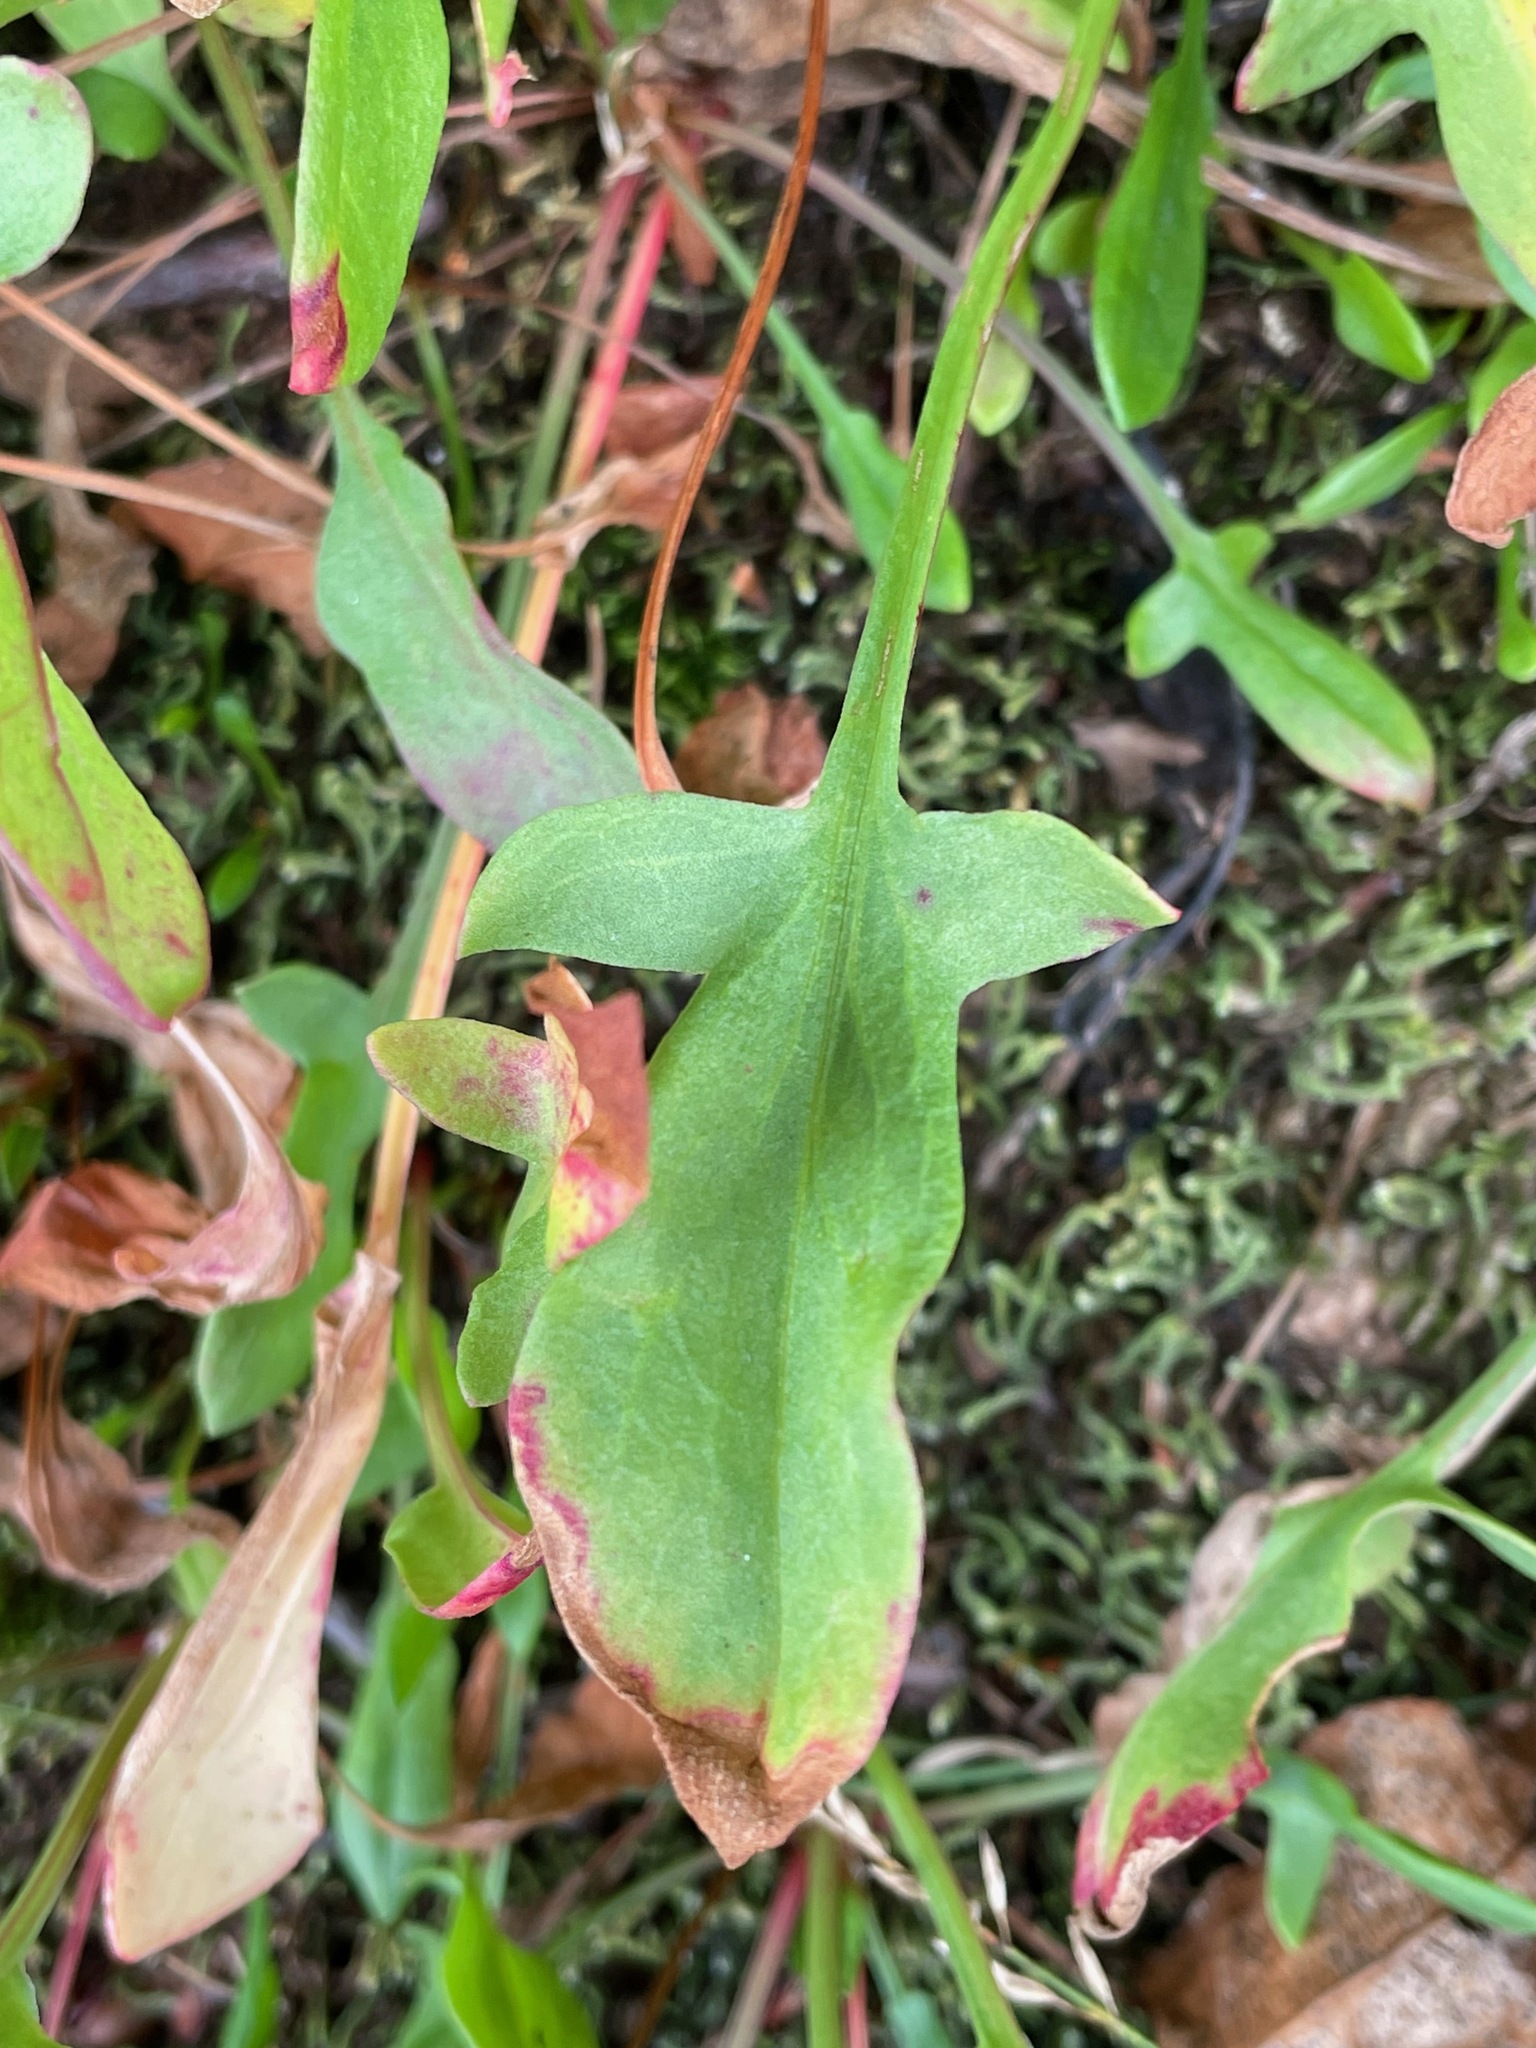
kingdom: Plantae
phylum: Tracheophyta
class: Magnoliopsida
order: Caryophyllales
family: Polygonaceae
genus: Rumex
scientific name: Rumex acetosella
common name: Common sheep sorrel
